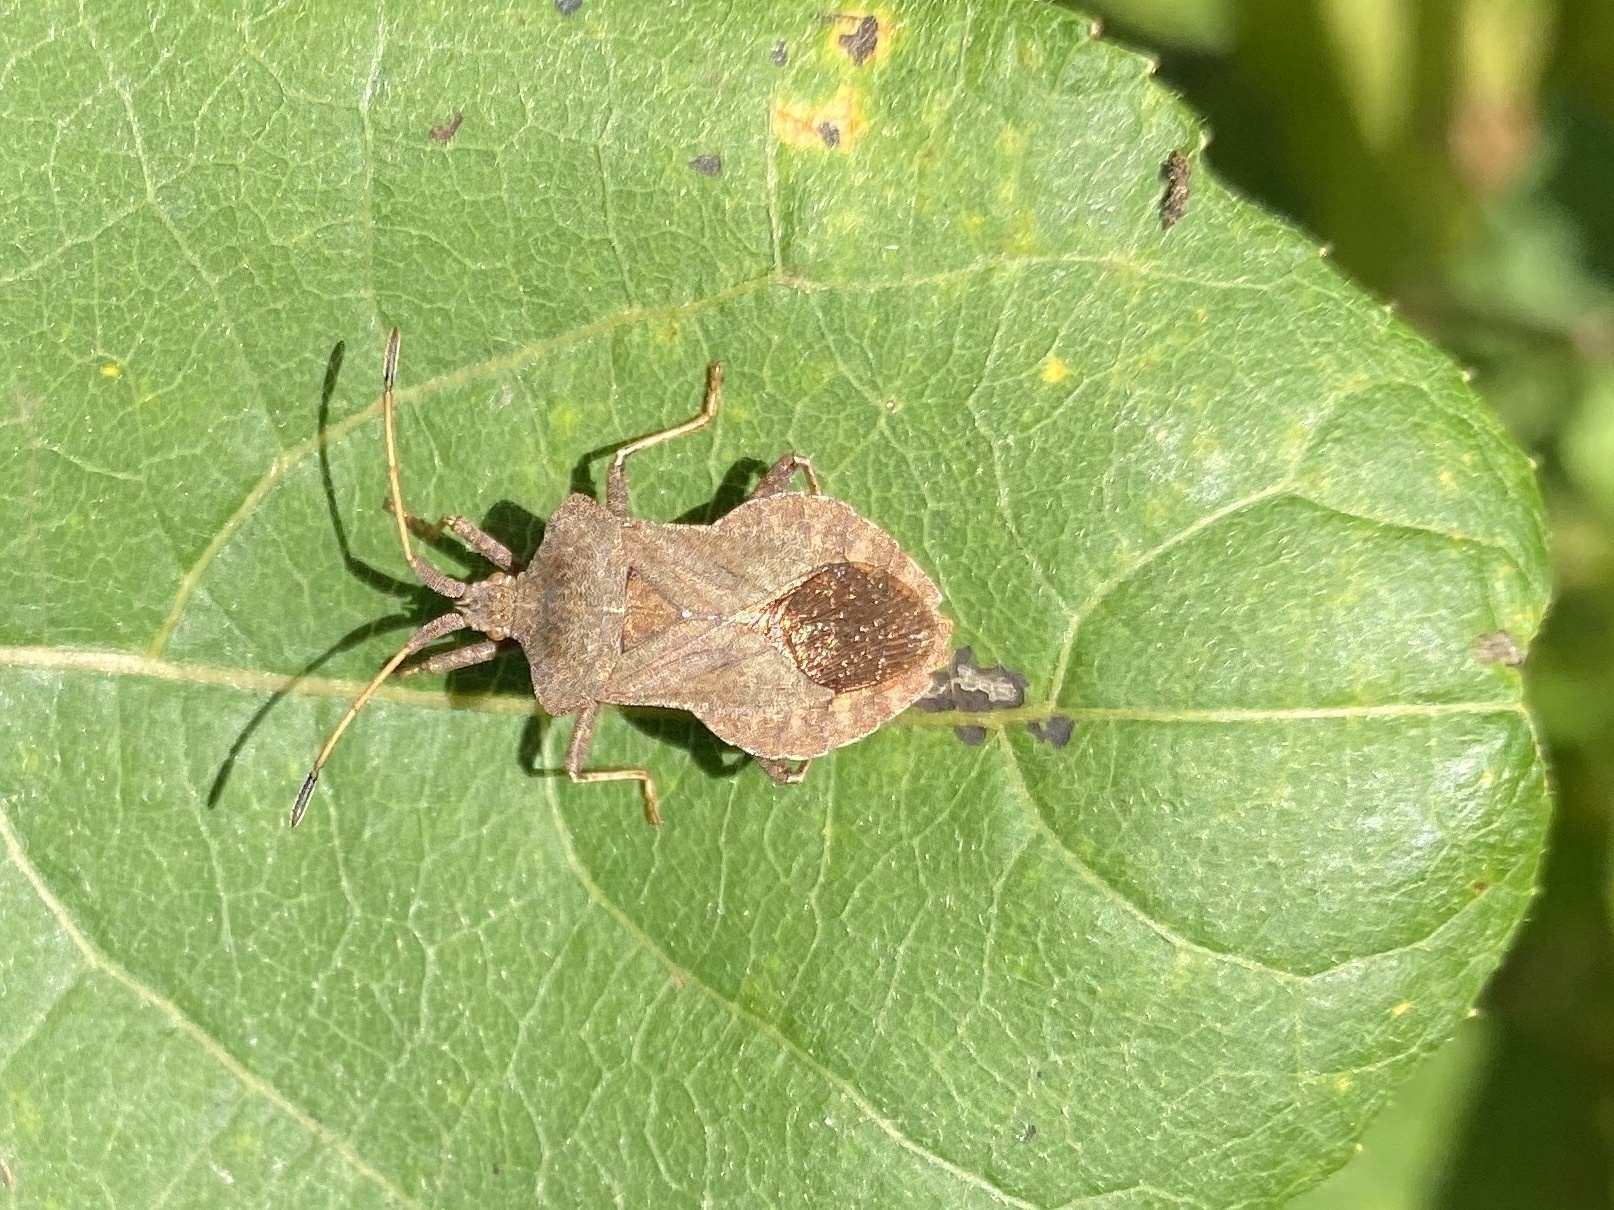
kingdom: Animalia
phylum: Arthropoda
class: Insecta
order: Hemiptera
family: Coreidae
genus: Coreus
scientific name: Coreus marginatus
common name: Dock bug
